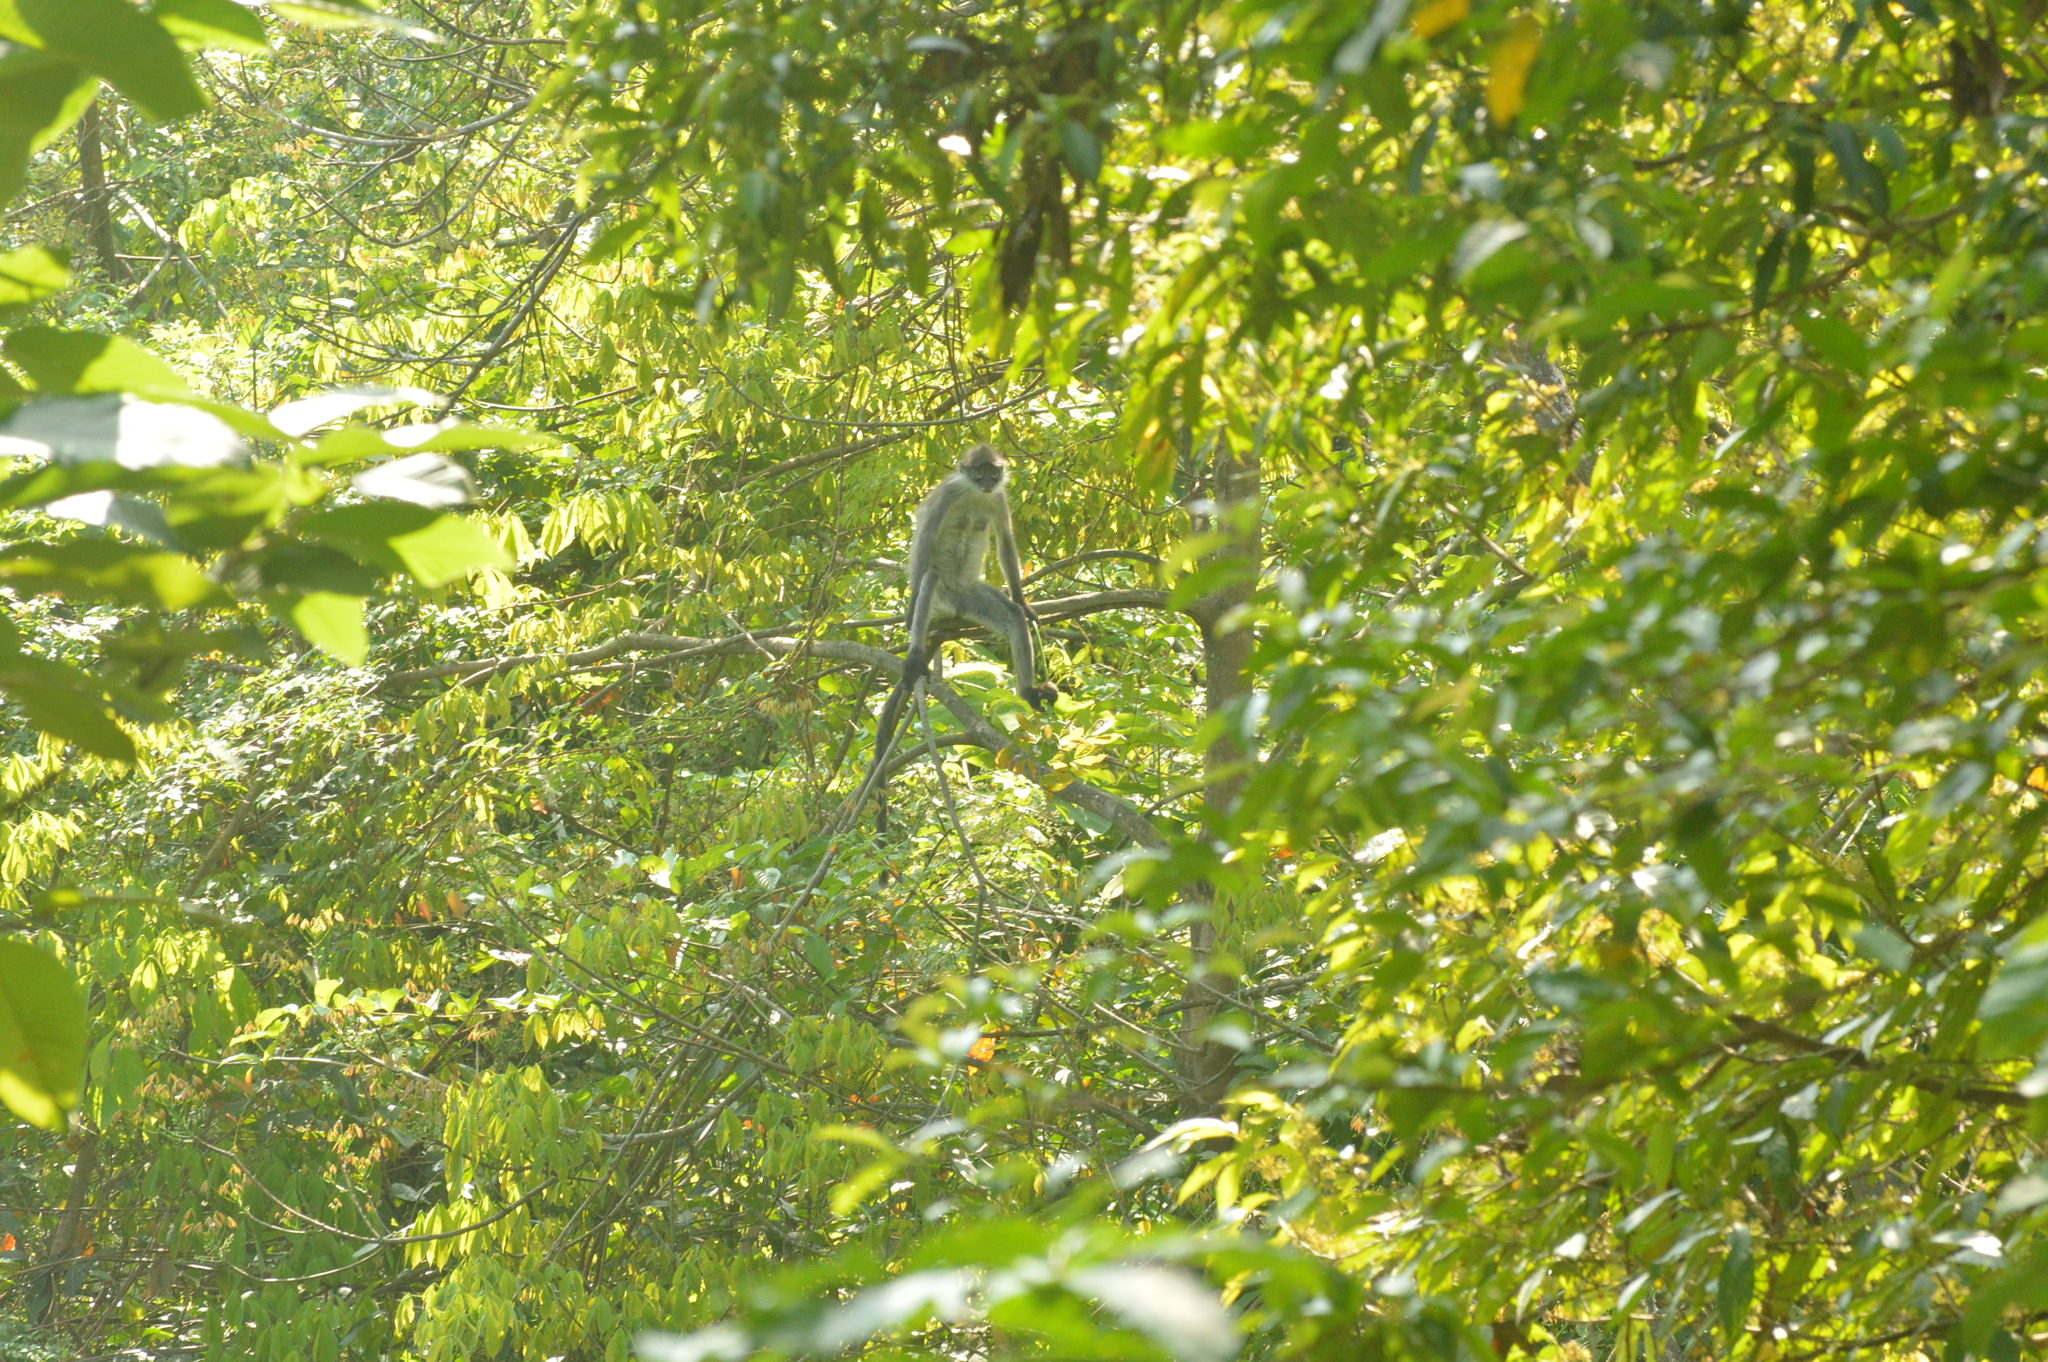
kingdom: Animalia
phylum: Chordata
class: Mammalia
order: Primates
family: Cercopithecidae
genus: Presbytis
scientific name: Presbytis siamensis
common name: White-thighed surili
